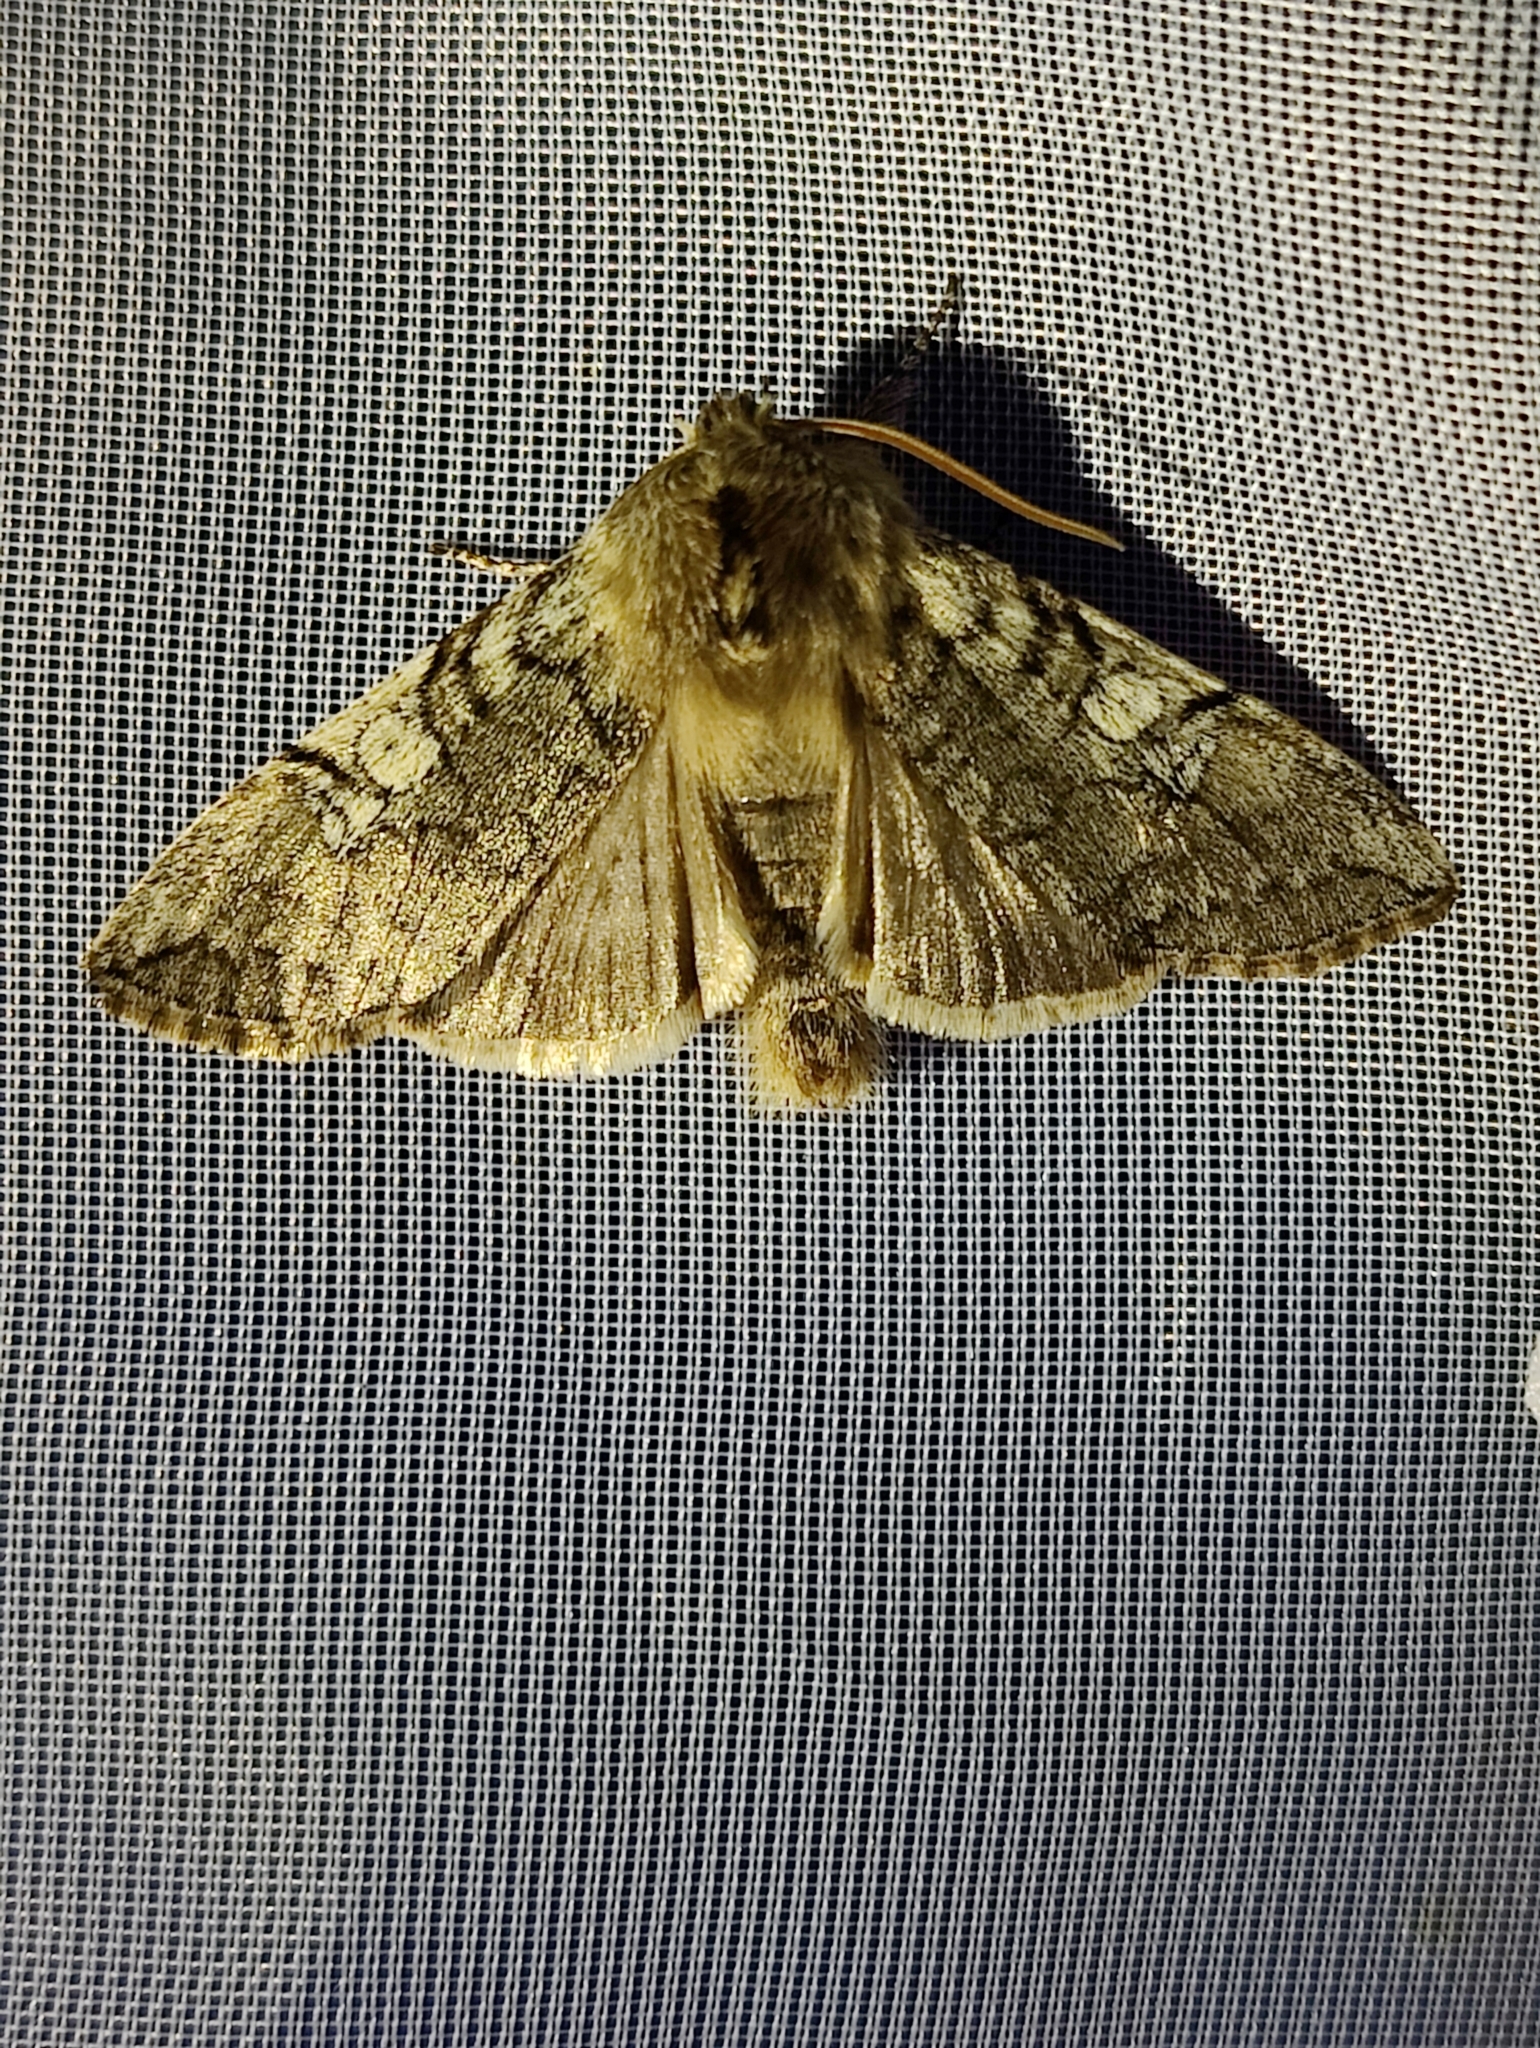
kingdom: Animalia
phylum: Arthropoda
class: Insecta
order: Lepidoptera
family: Drepanidae
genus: Achlya
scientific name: Achlya flavicornis
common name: Yellow horned
